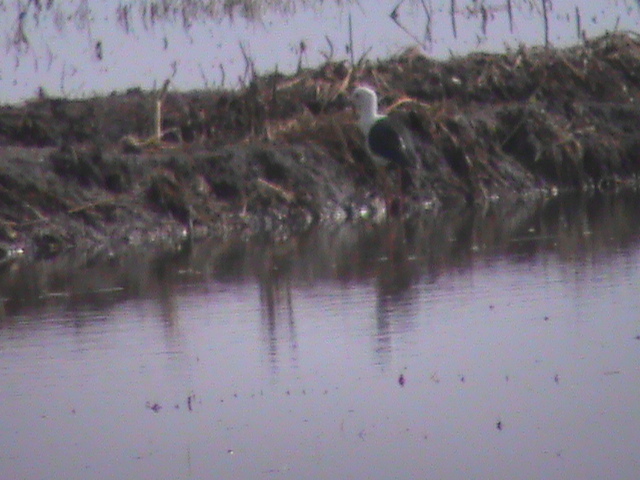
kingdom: Animalia
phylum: Chordata
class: Aves
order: Charadriiformes
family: Recurvirostridae
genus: Himantopus
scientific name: Himantopus himantopus
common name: Black-winged stilt
